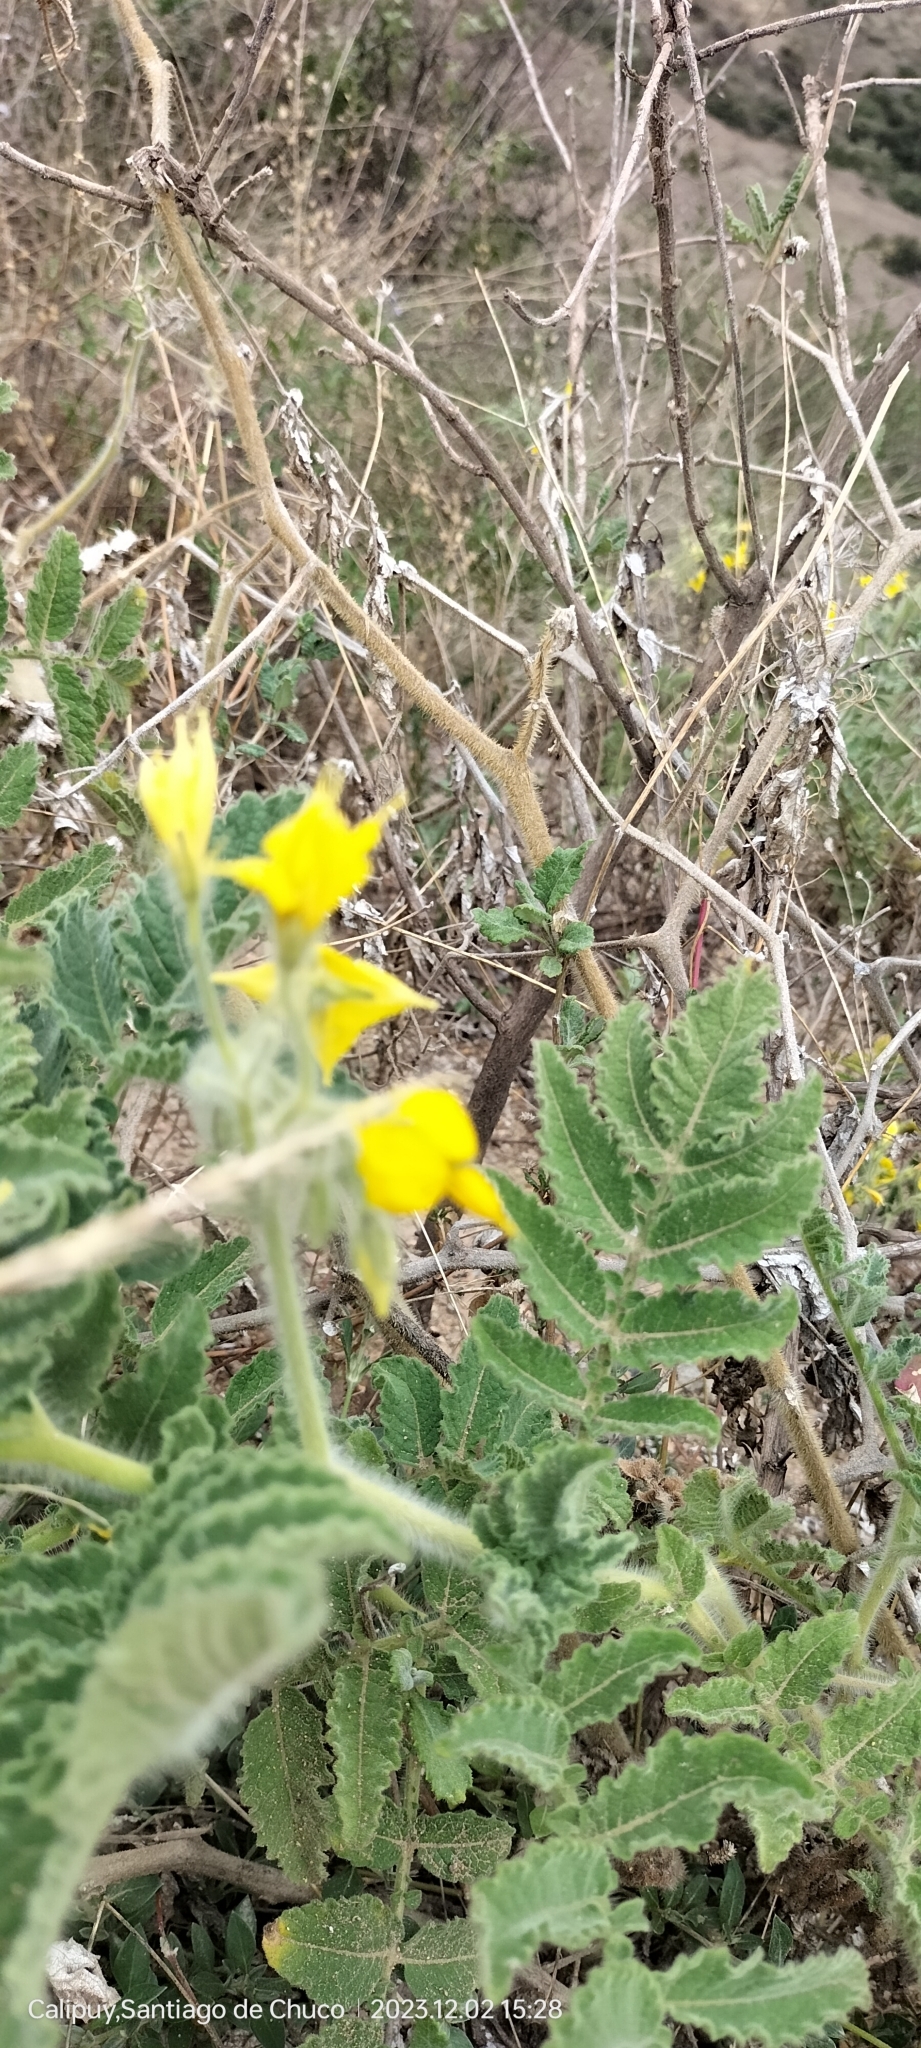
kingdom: Plantae
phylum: Tracheophyta
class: Magnoliopsida
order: Solanales
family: Solanaceae
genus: Solanum
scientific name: Solanum habrochaites
